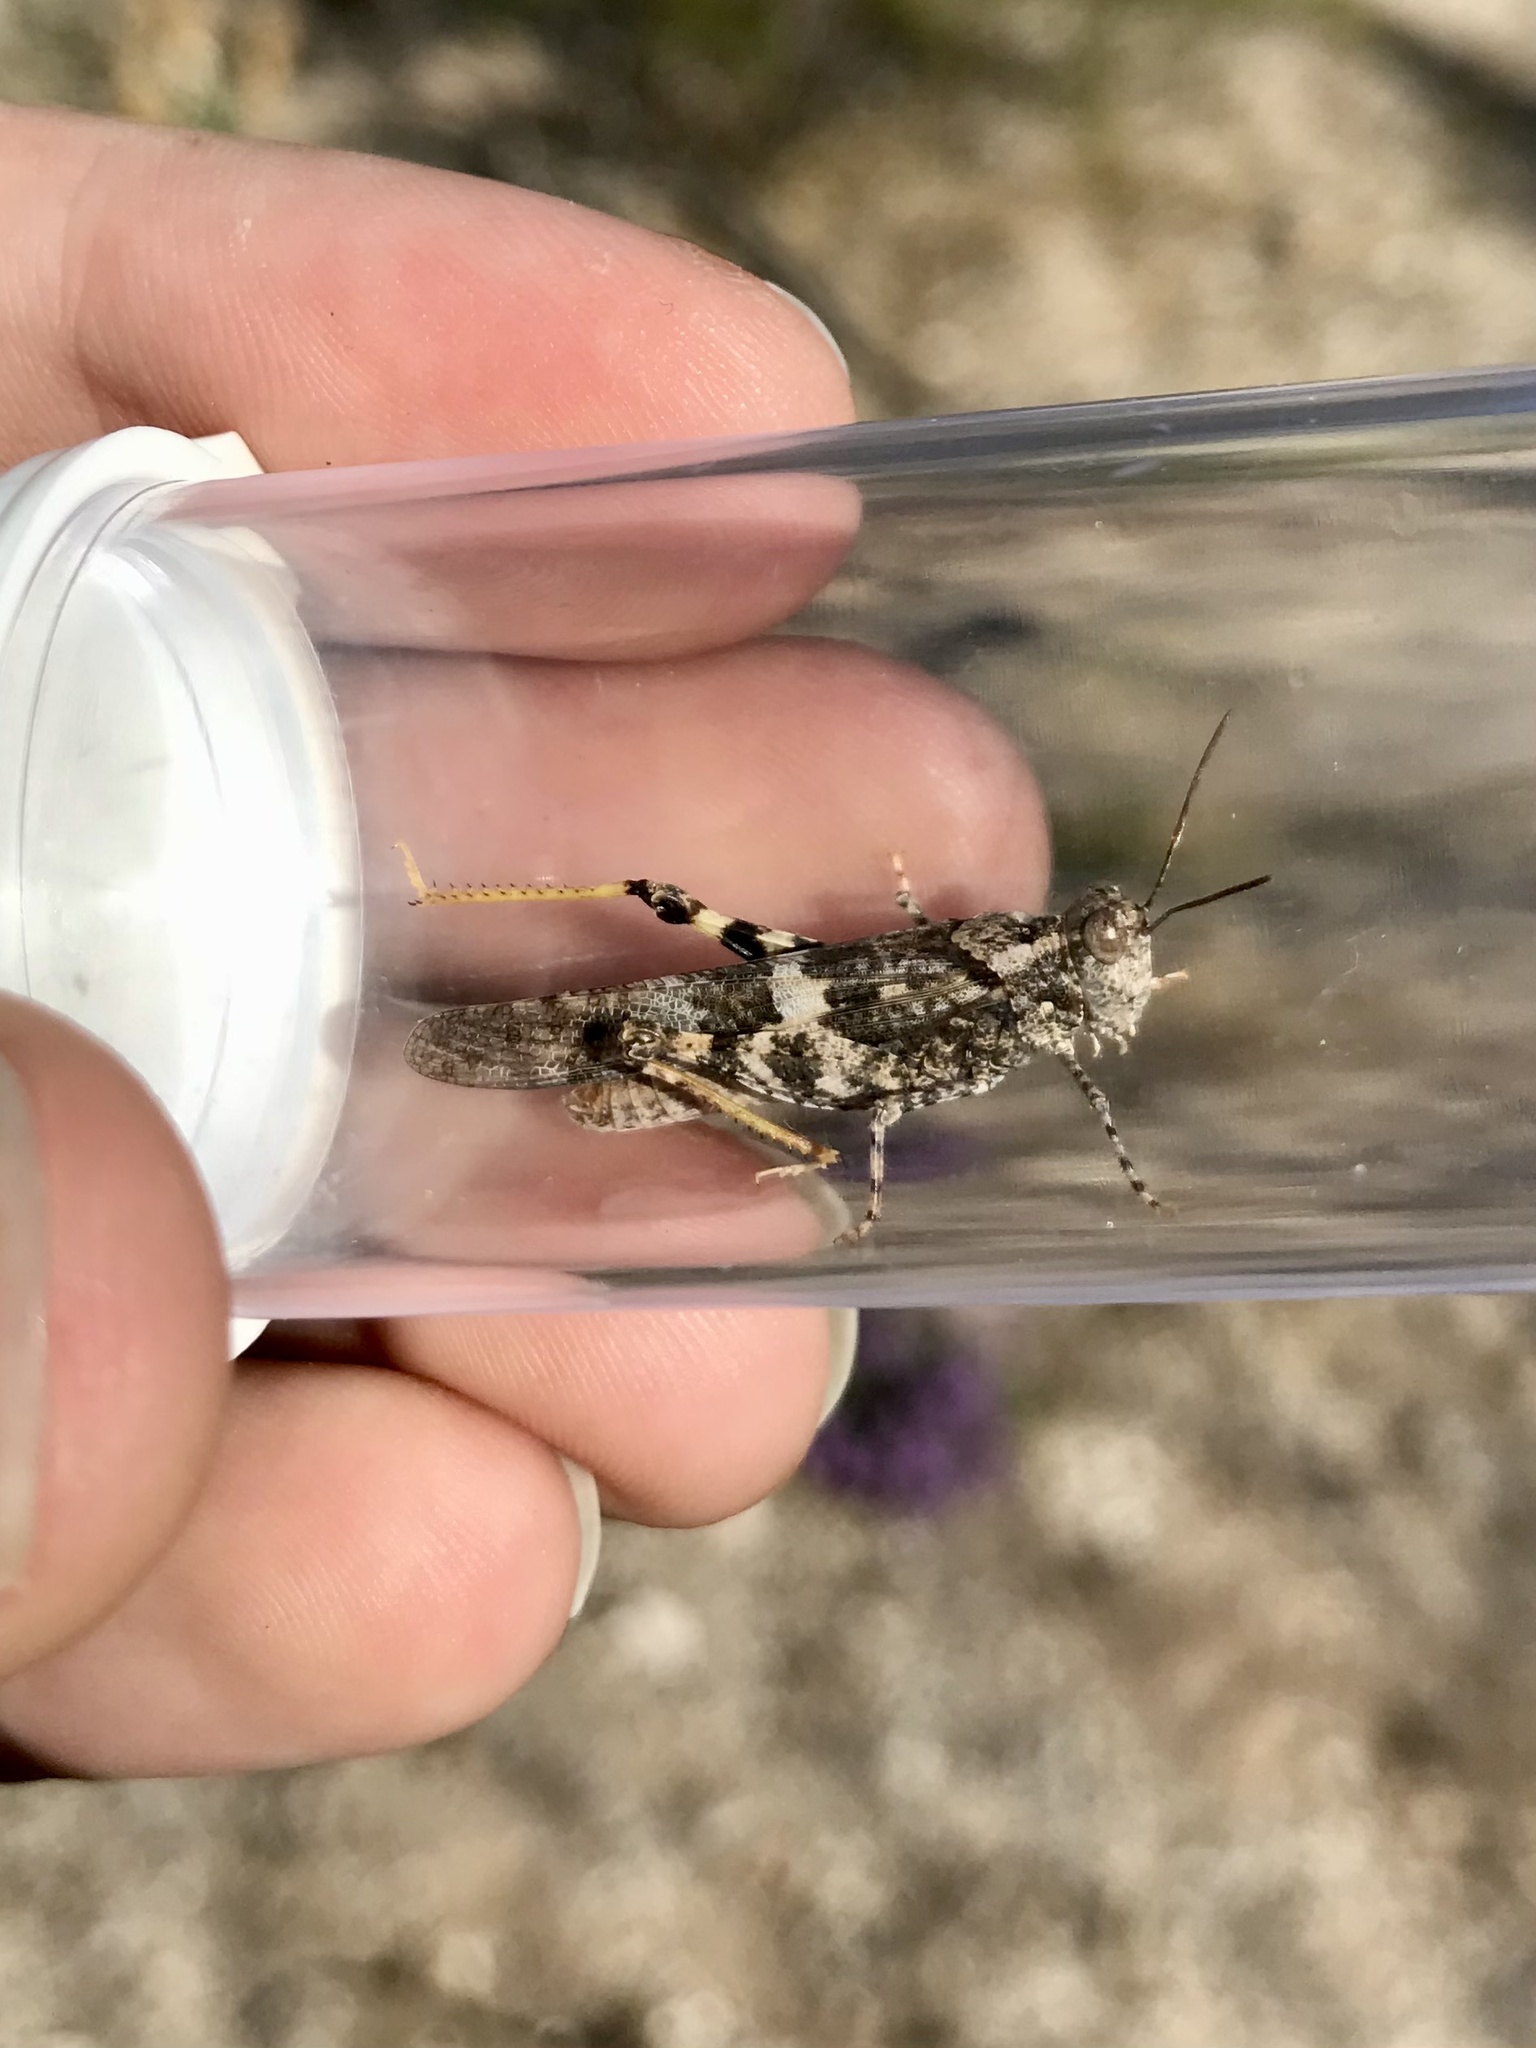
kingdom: Animalia
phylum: Arthropoda
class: Insecta
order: Orthoptera
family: Acrididae
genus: Trimerotropis
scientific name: Trimerotropis pallidipennis
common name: Pallid-winged grasshopper
